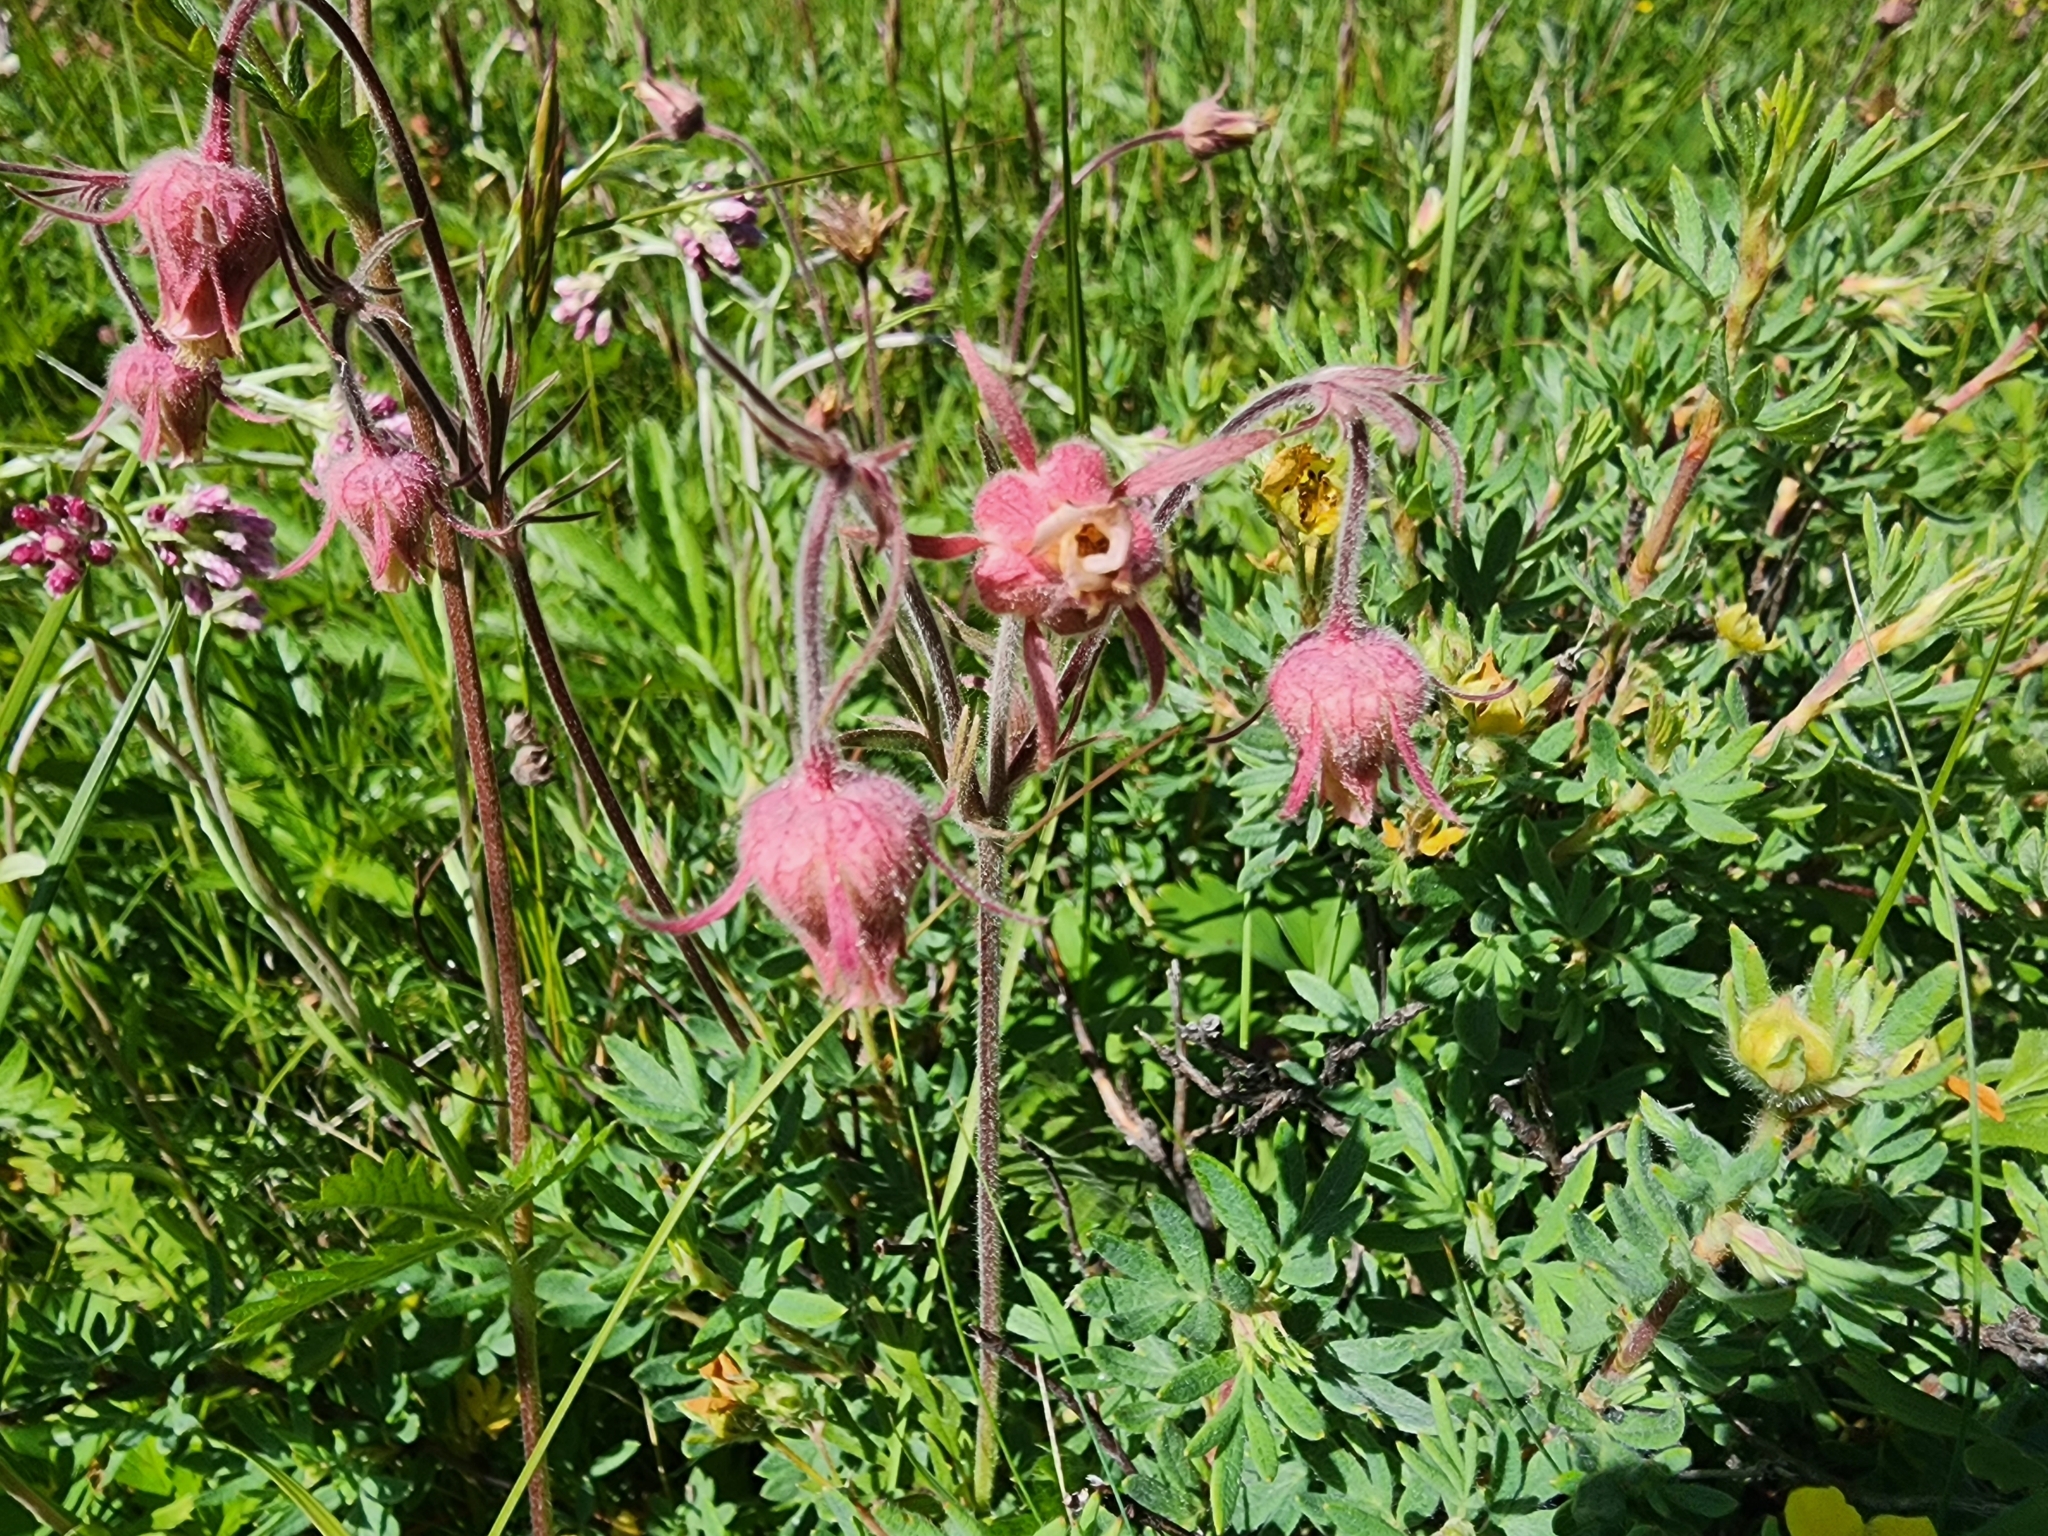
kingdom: Plantae
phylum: Tracheophyta
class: Magnoliopsida
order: Rosales
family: Rosaceae
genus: Geum
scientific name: Geum triflorum
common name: Old man's whiskers
